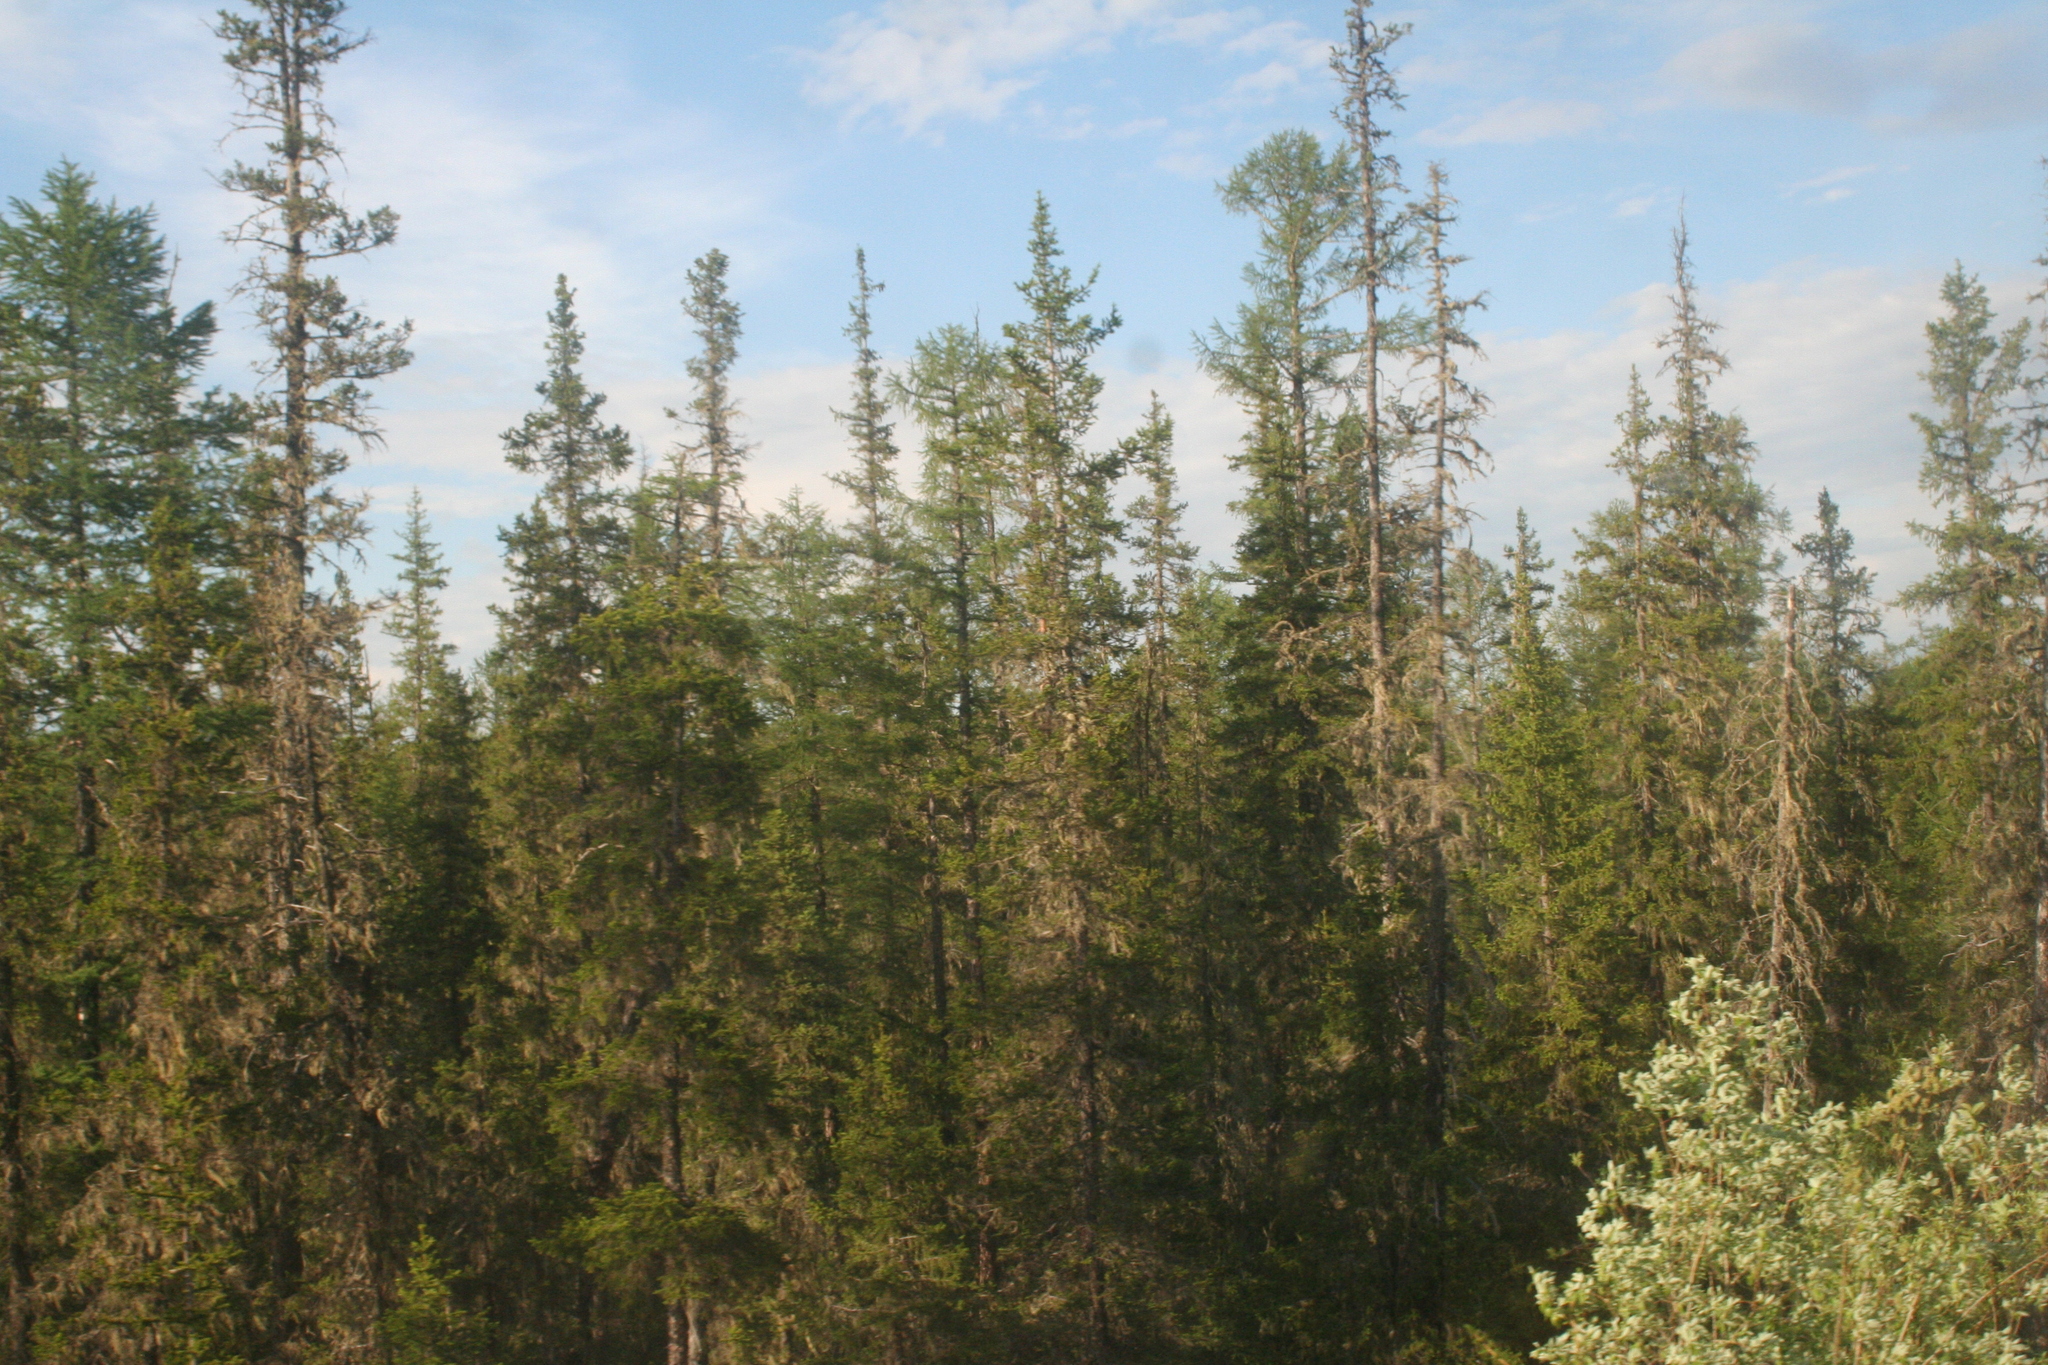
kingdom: Plantae
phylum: Tracheophyta
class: Pinopsida
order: Pinales
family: Pinaceae
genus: Picea
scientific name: Picea obovata
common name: Siberian spruce
